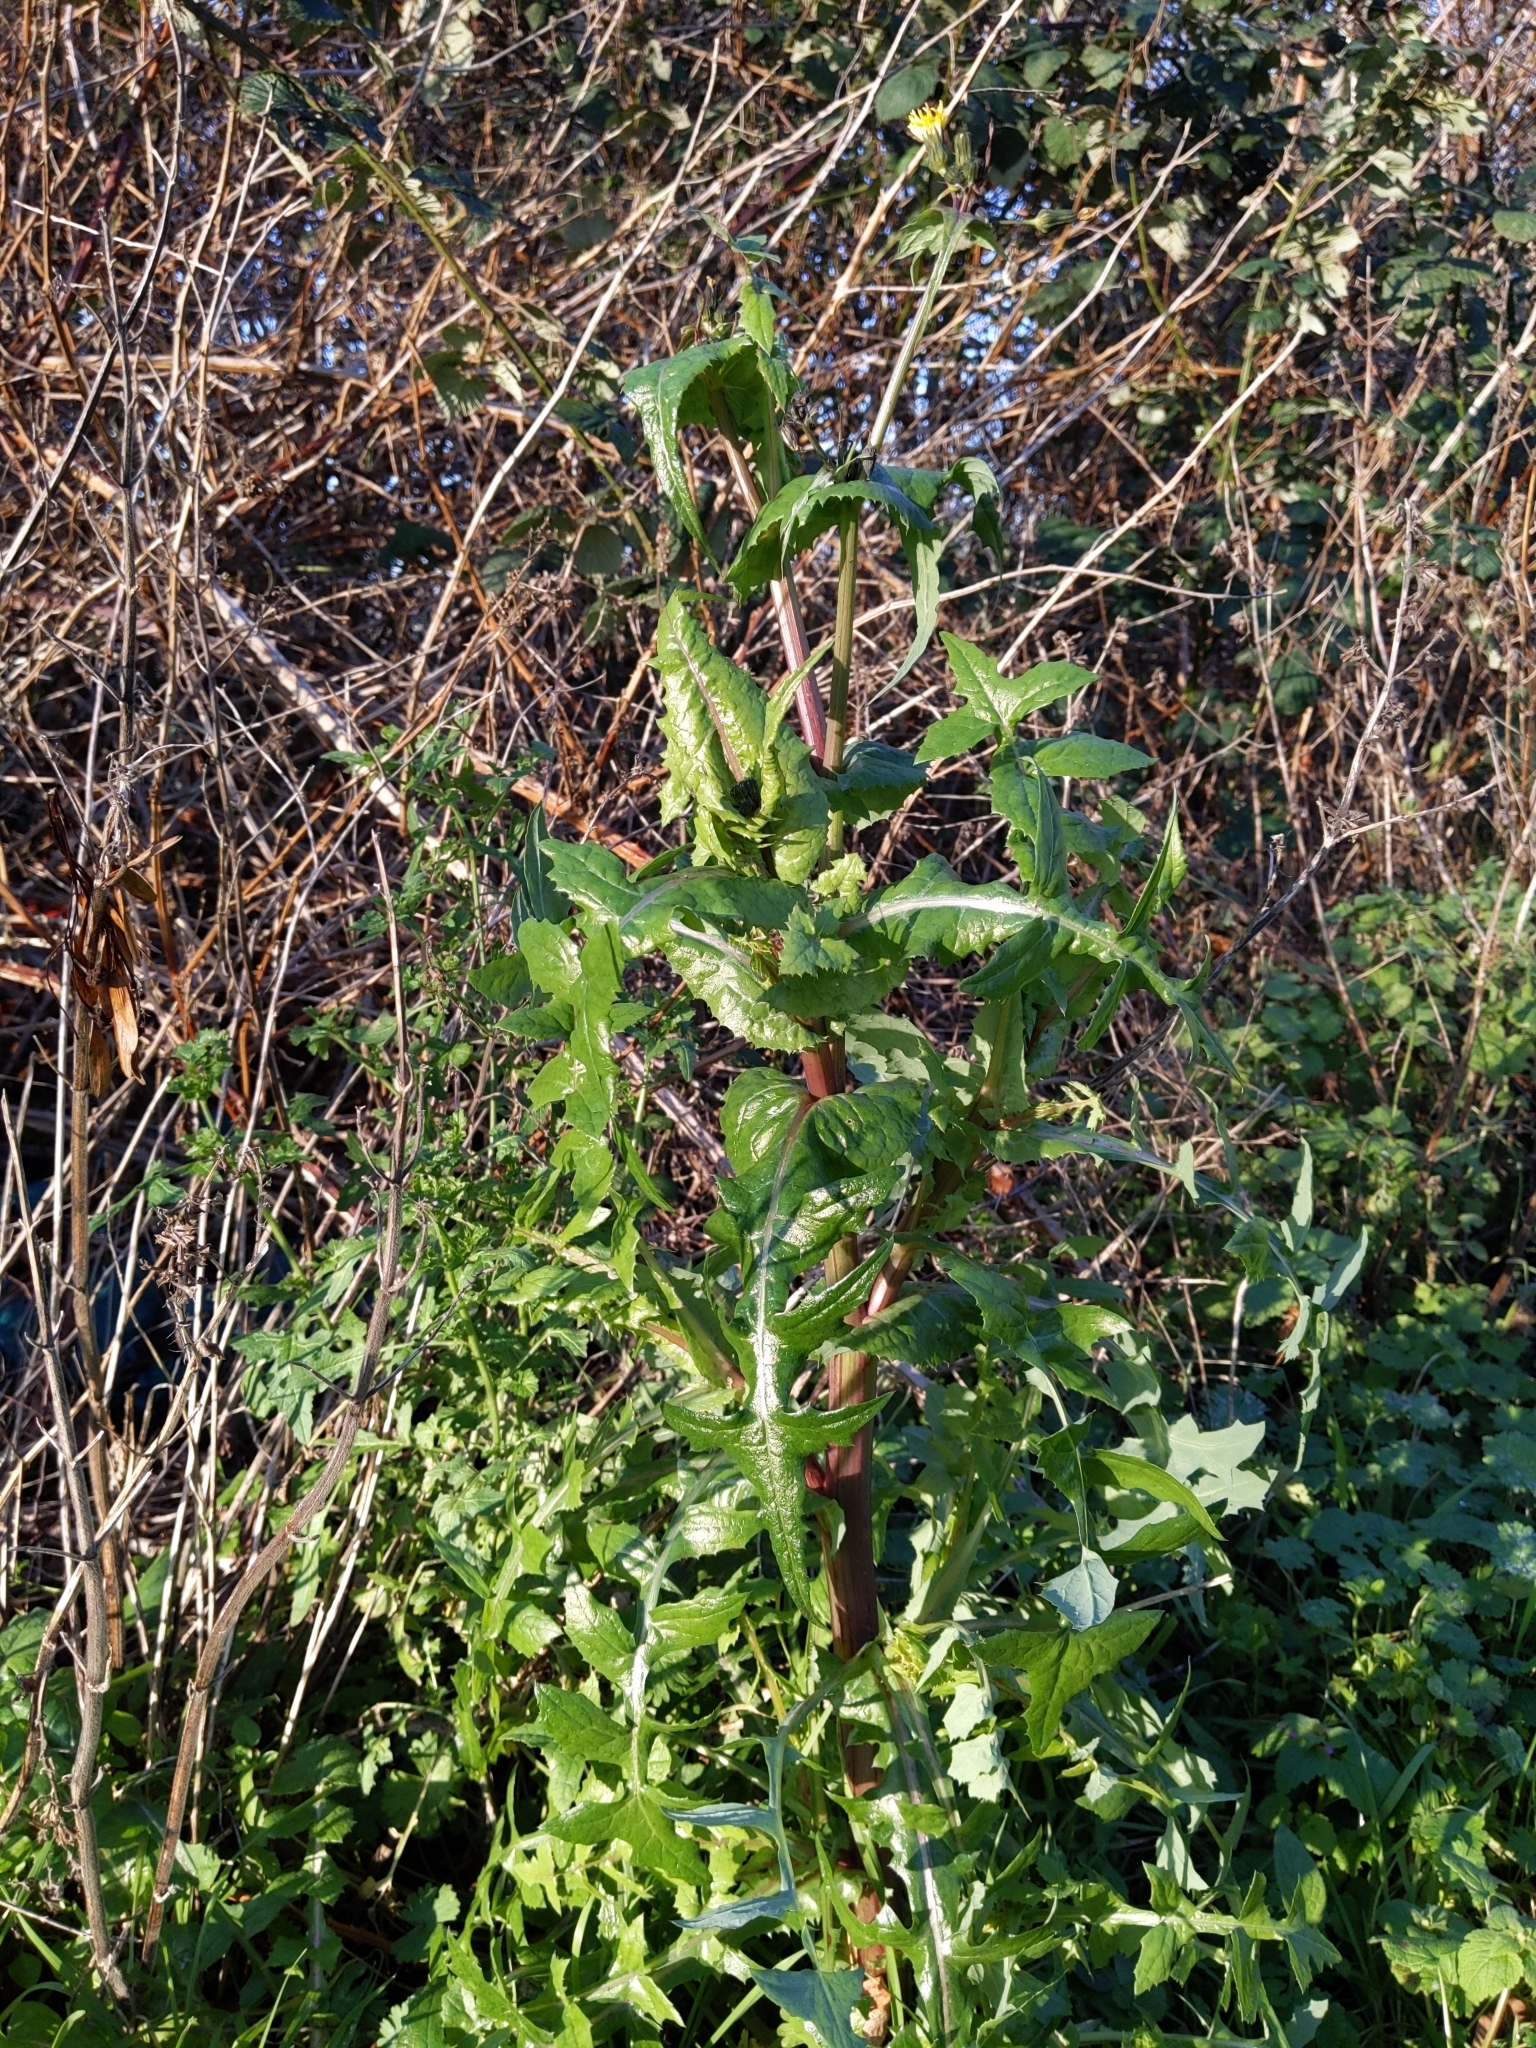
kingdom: Plantae
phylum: Tracheophyta
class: Magnoliopsida
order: Asterales
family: Asteraceae
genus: Sonchus
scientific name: Sonchus oleraceus
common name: Common sowthistle
